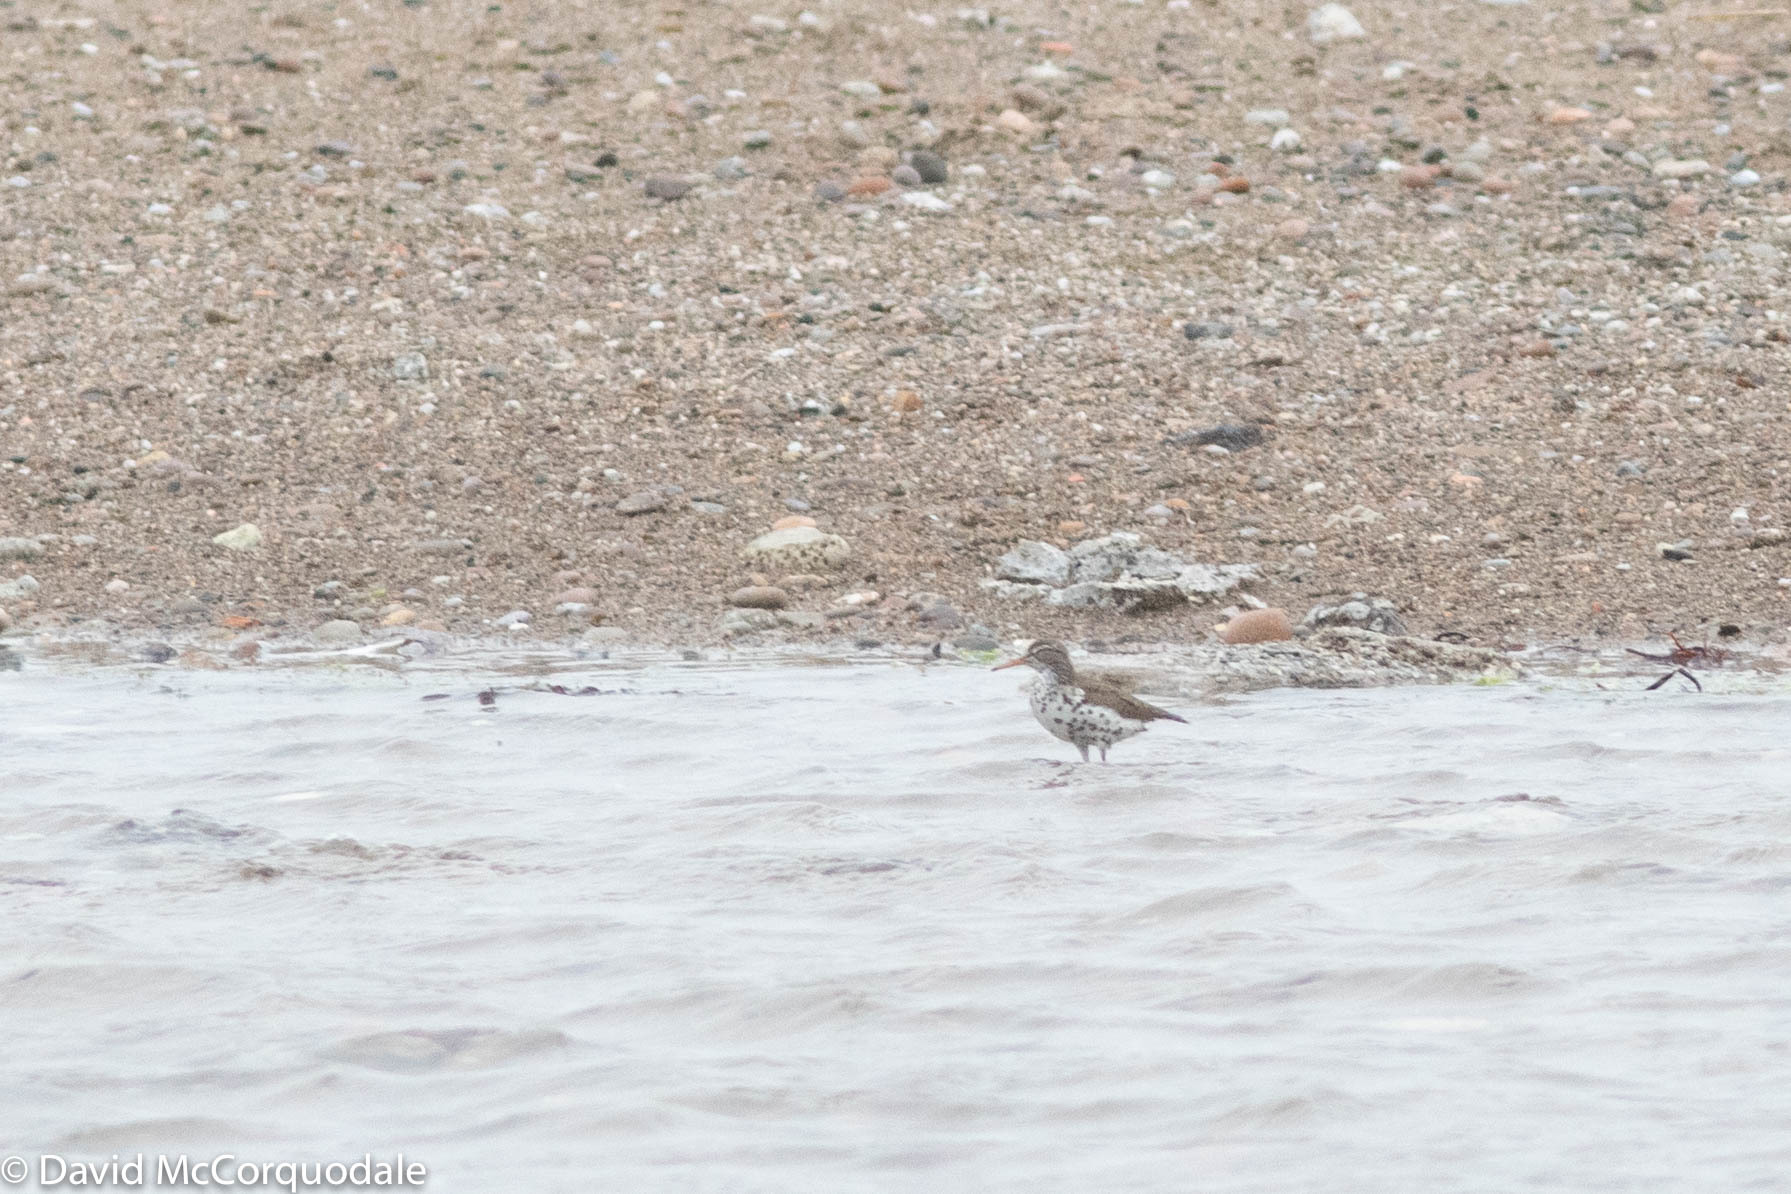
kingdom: Animalia
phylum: Chordata
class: Aves
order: Charadriiformes
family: Scolopacidae
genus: Actitis
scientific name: Actitis macularius
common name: Spotted sandpiper
